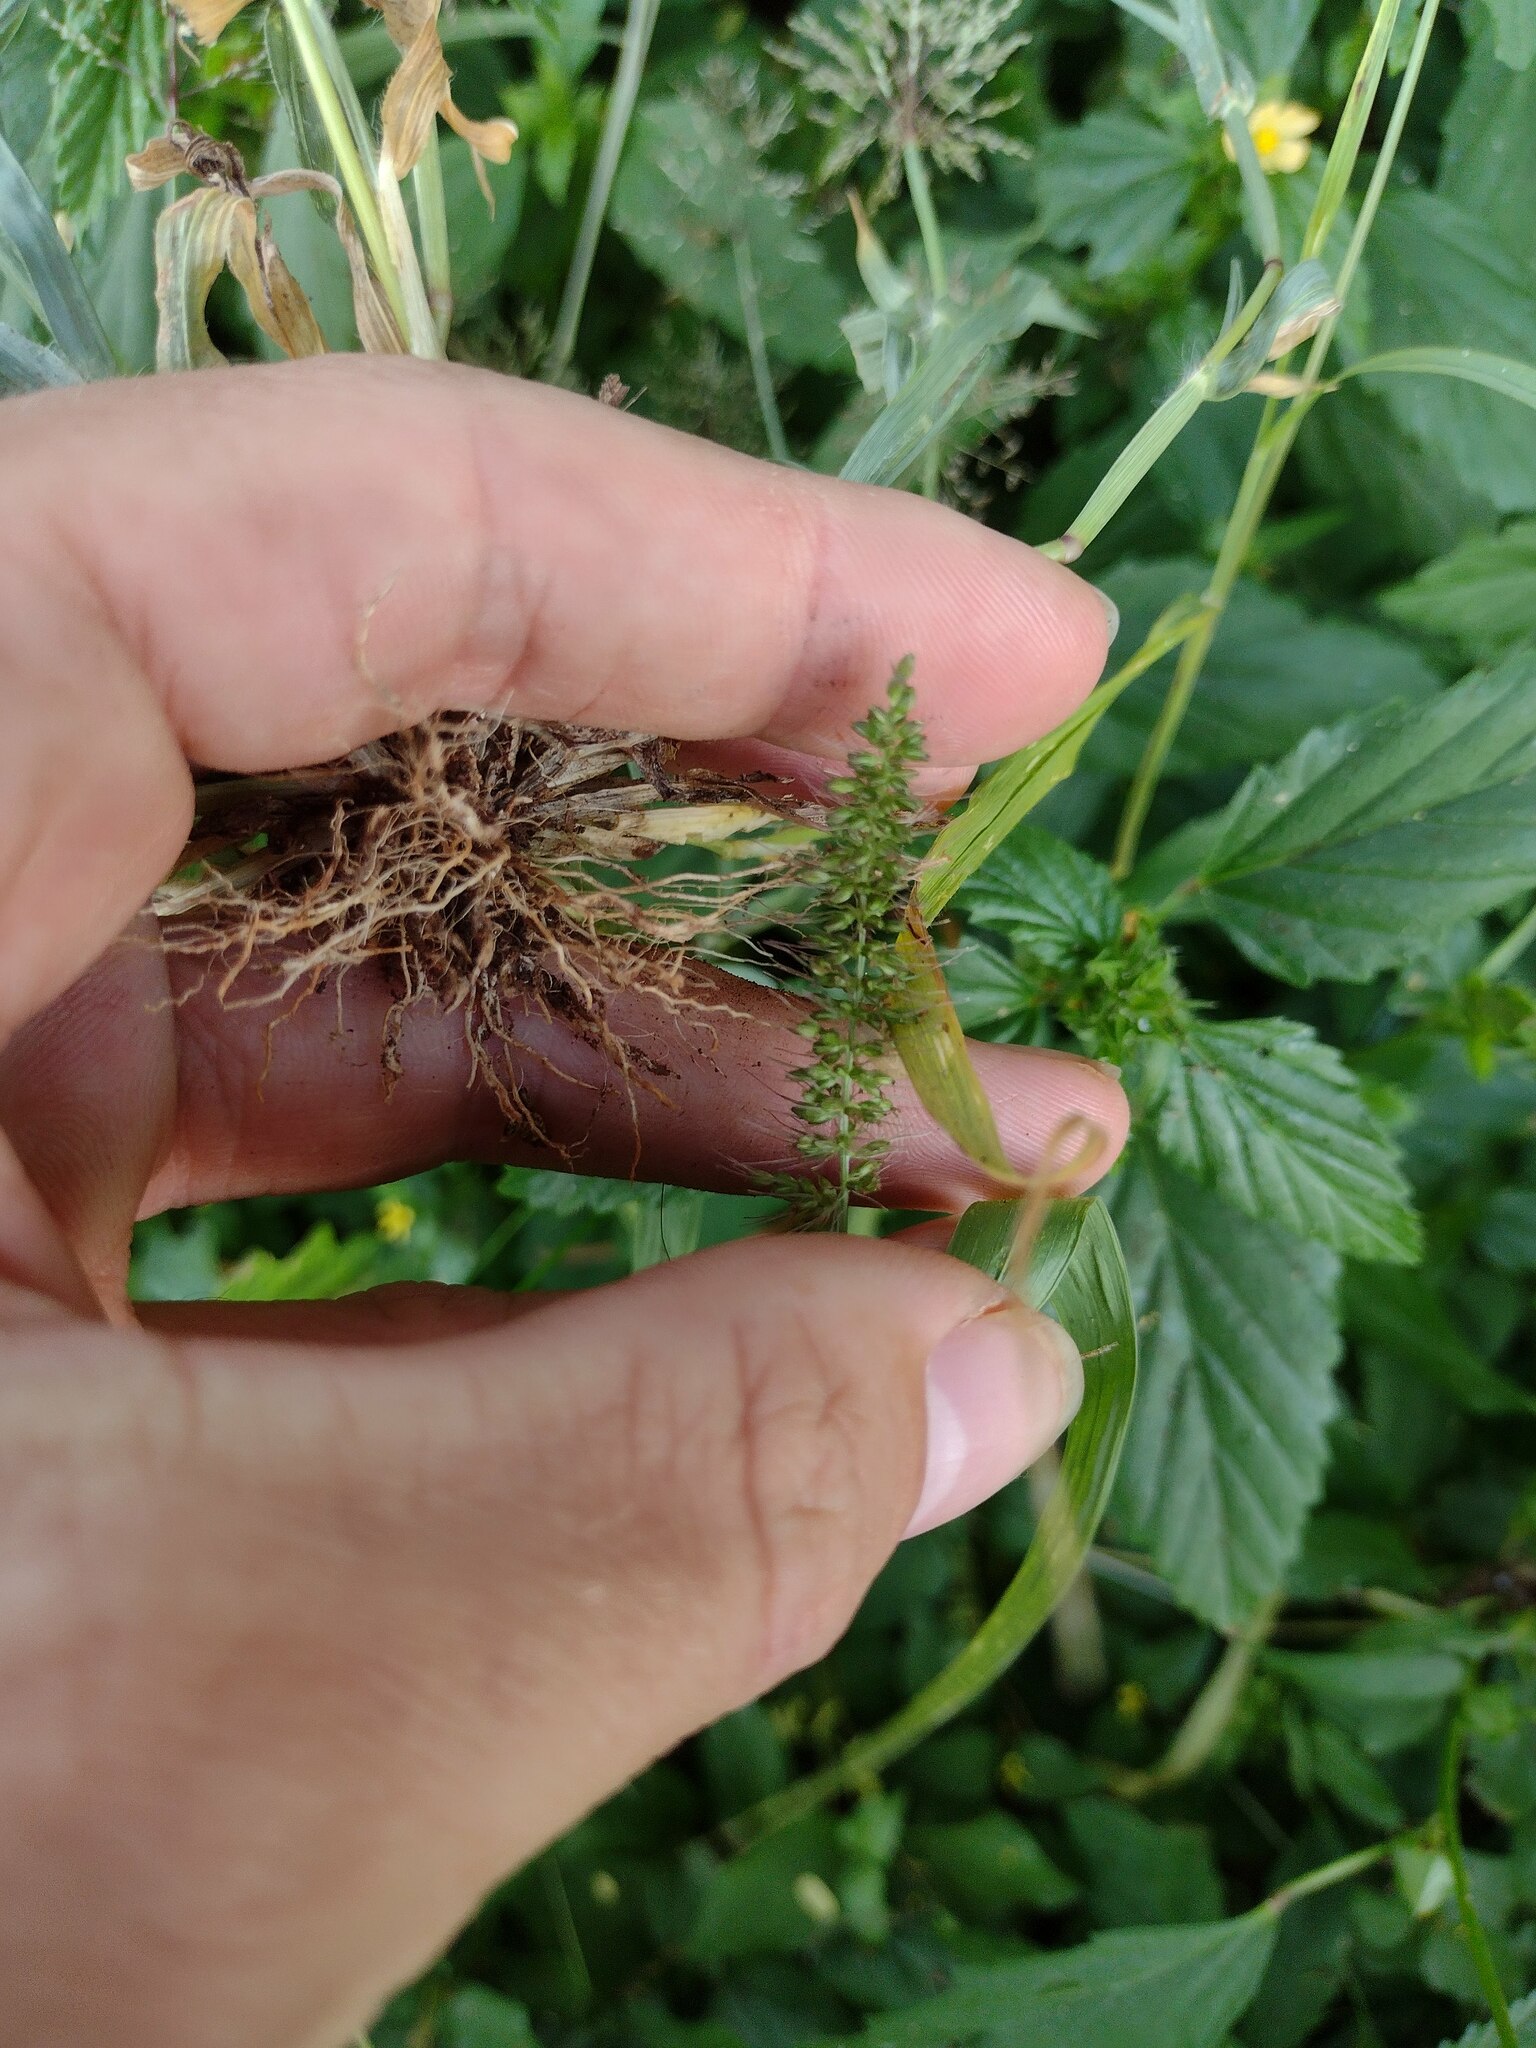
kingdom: Plantae
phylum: Tracheophyta
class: Liliopsida
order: Poales
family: Poaceae
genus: Setaria
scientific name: Setaria adhaerens
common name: Adherent bristle-grass
